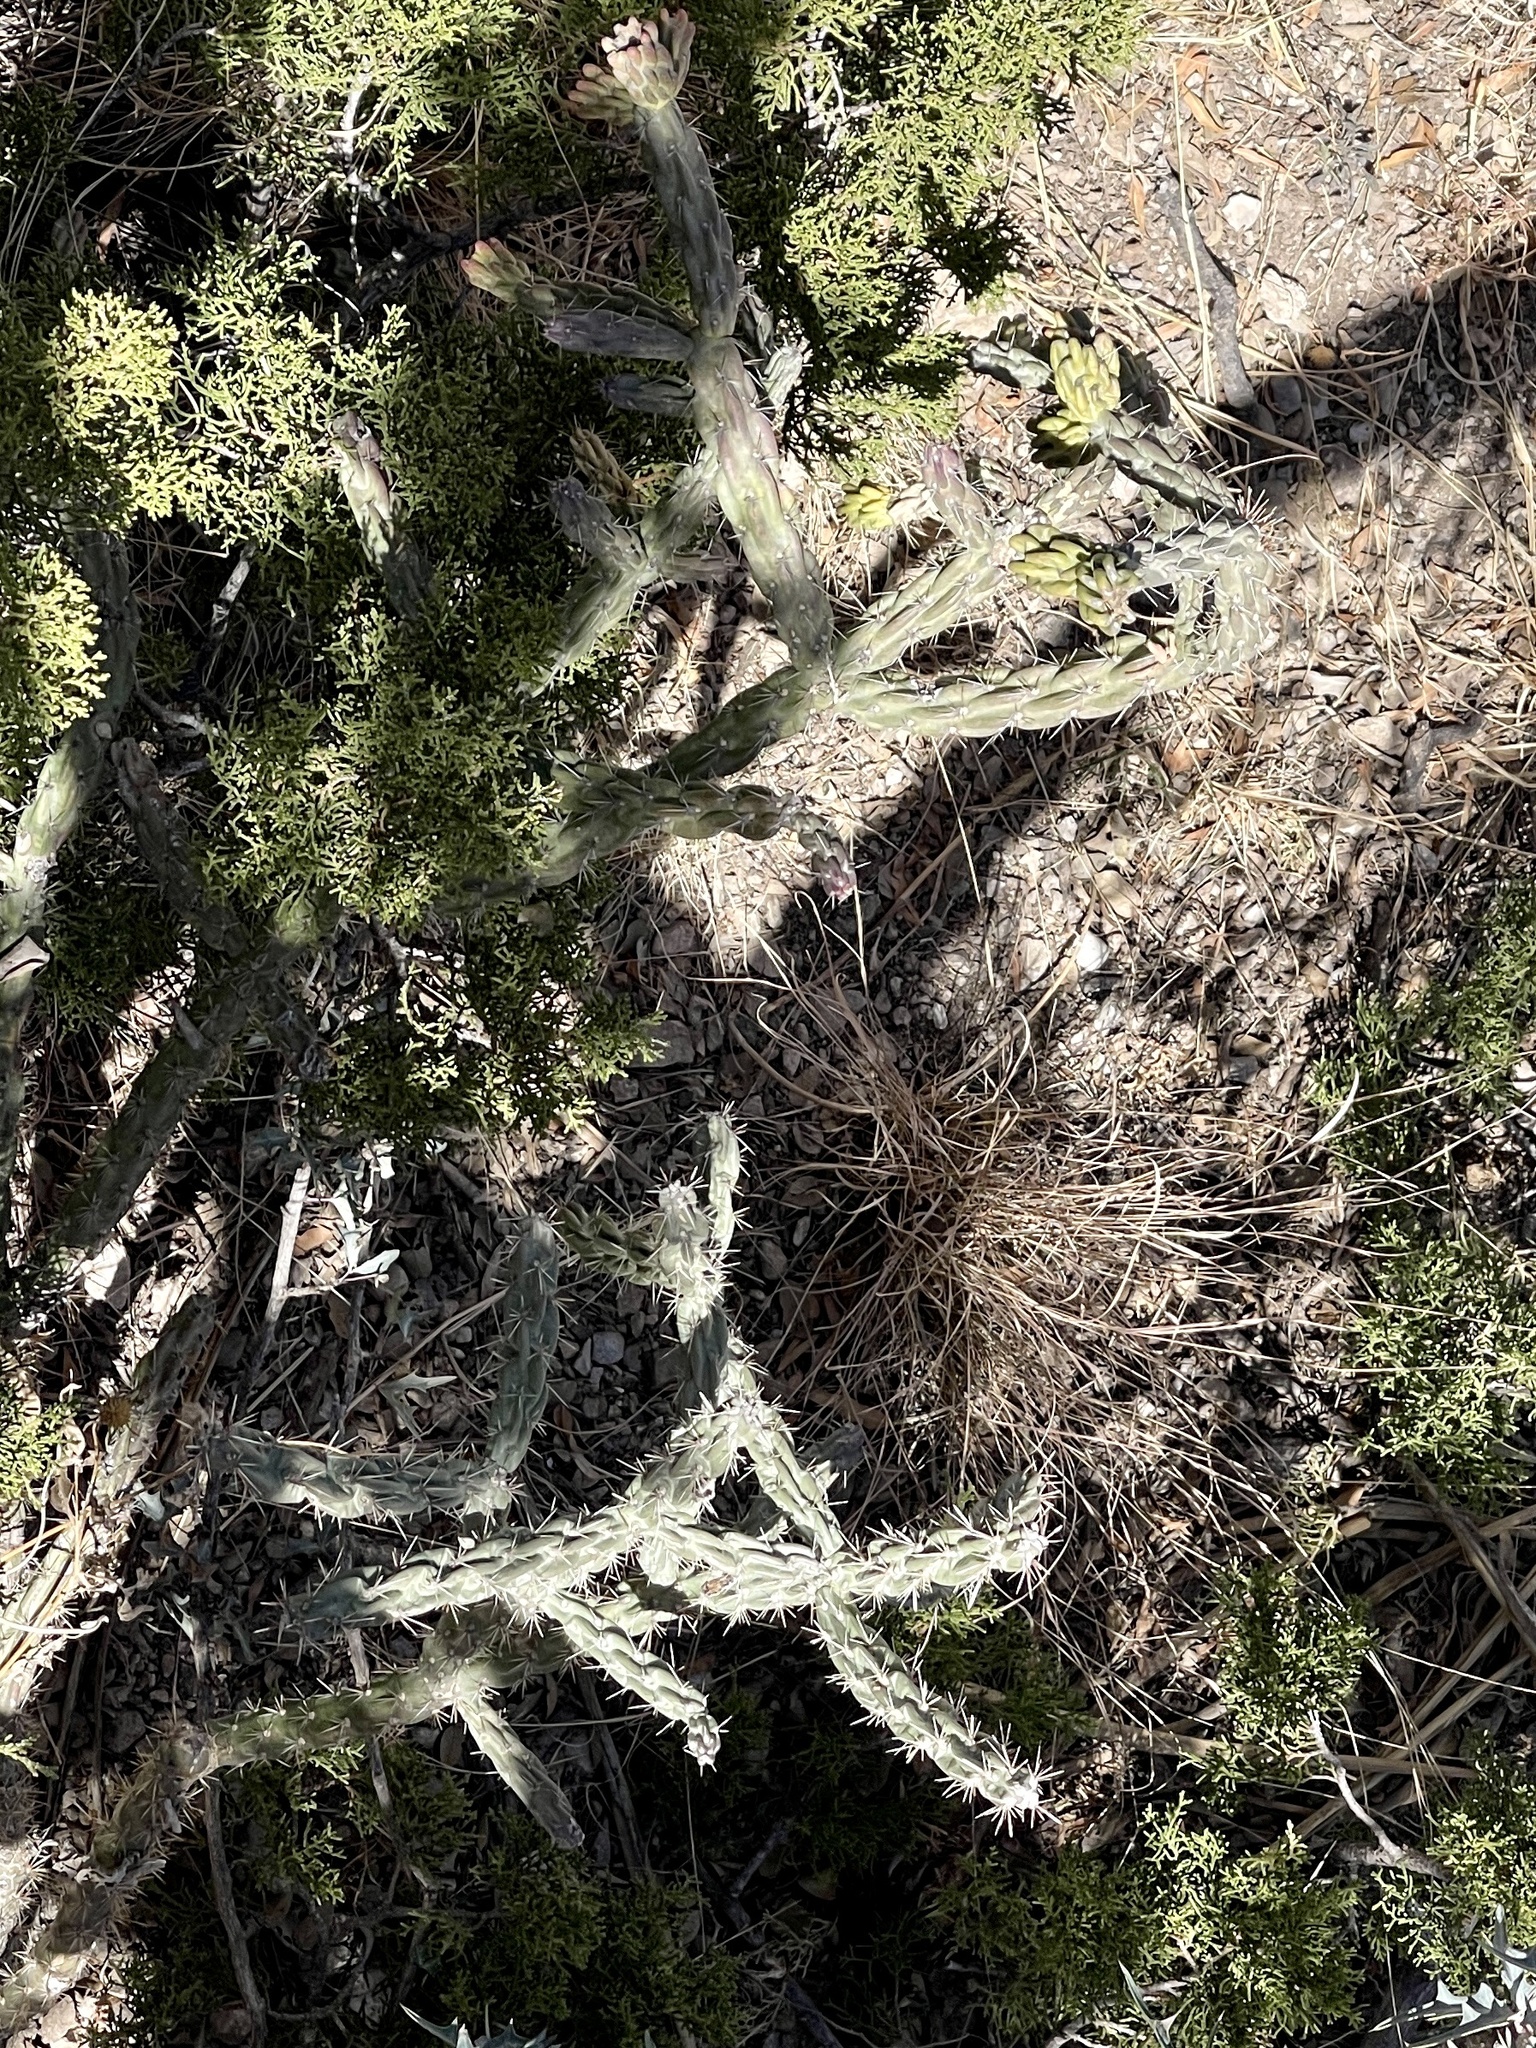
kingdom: Plantae
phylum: Tracheophyta
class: Magnoliopsida
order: Caryophyllales
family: Cactaceae
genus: Cylindropuntia
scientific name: Cylindropuntia imbricata
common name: Candelabrum cactus
